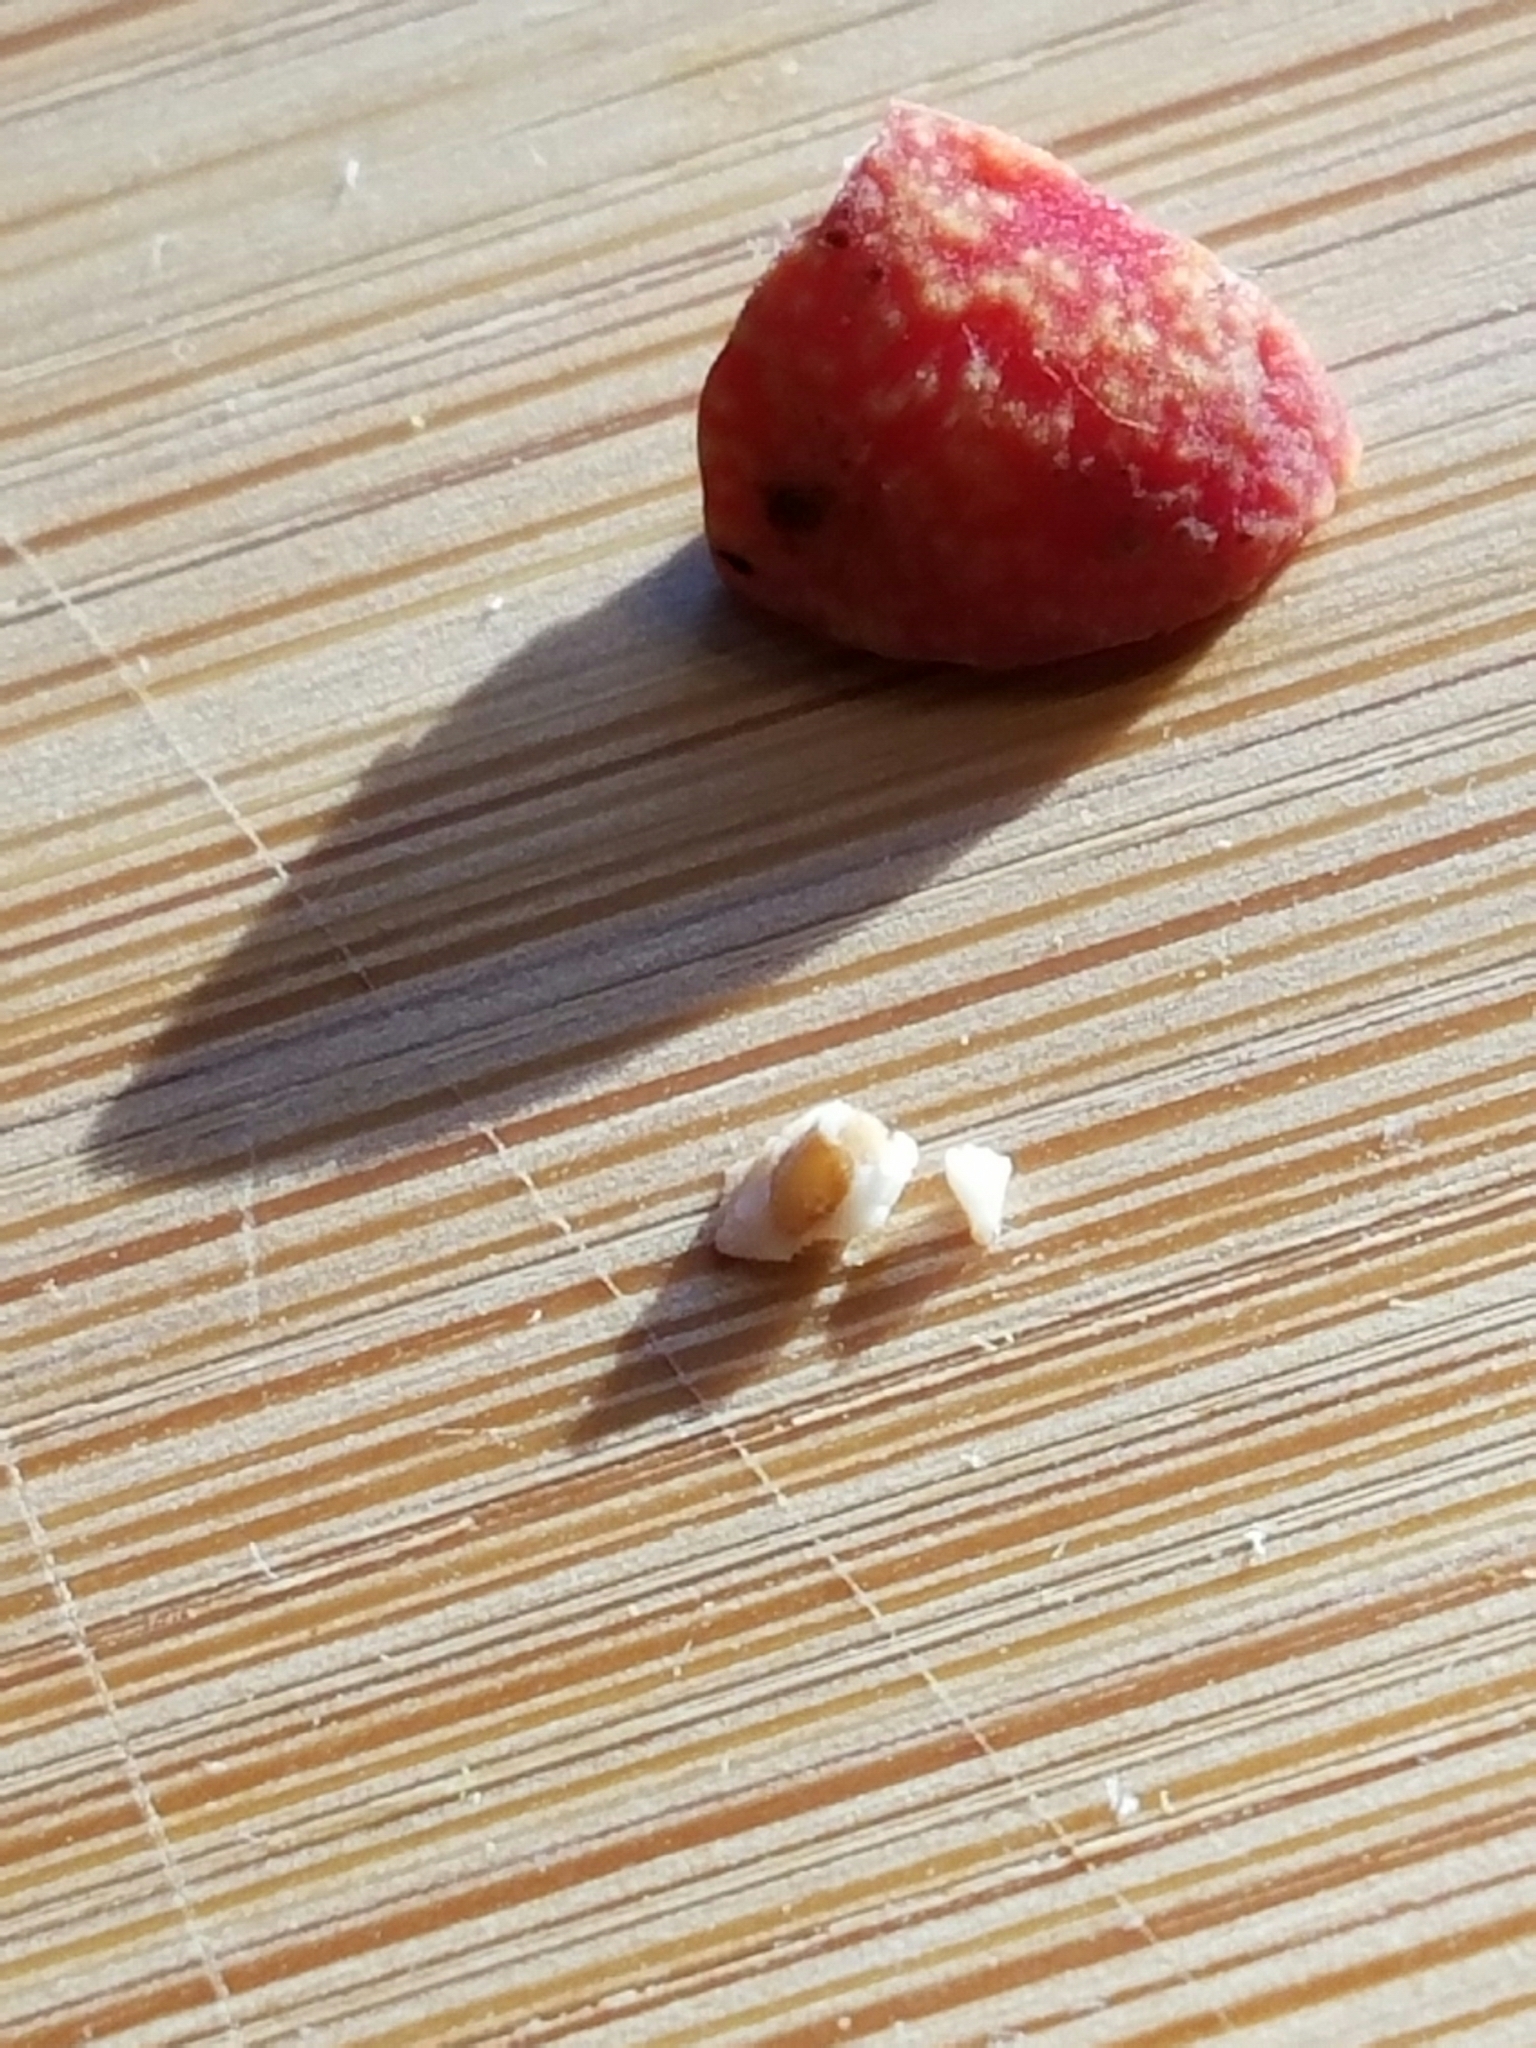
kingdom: Animalia
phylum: Arthropoda
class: Insecta
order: Hymenoptera
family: Cynipidae
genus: Kokkocynips
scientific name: Kokkocynips imbricariae
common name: Banded bullet gall wasp
